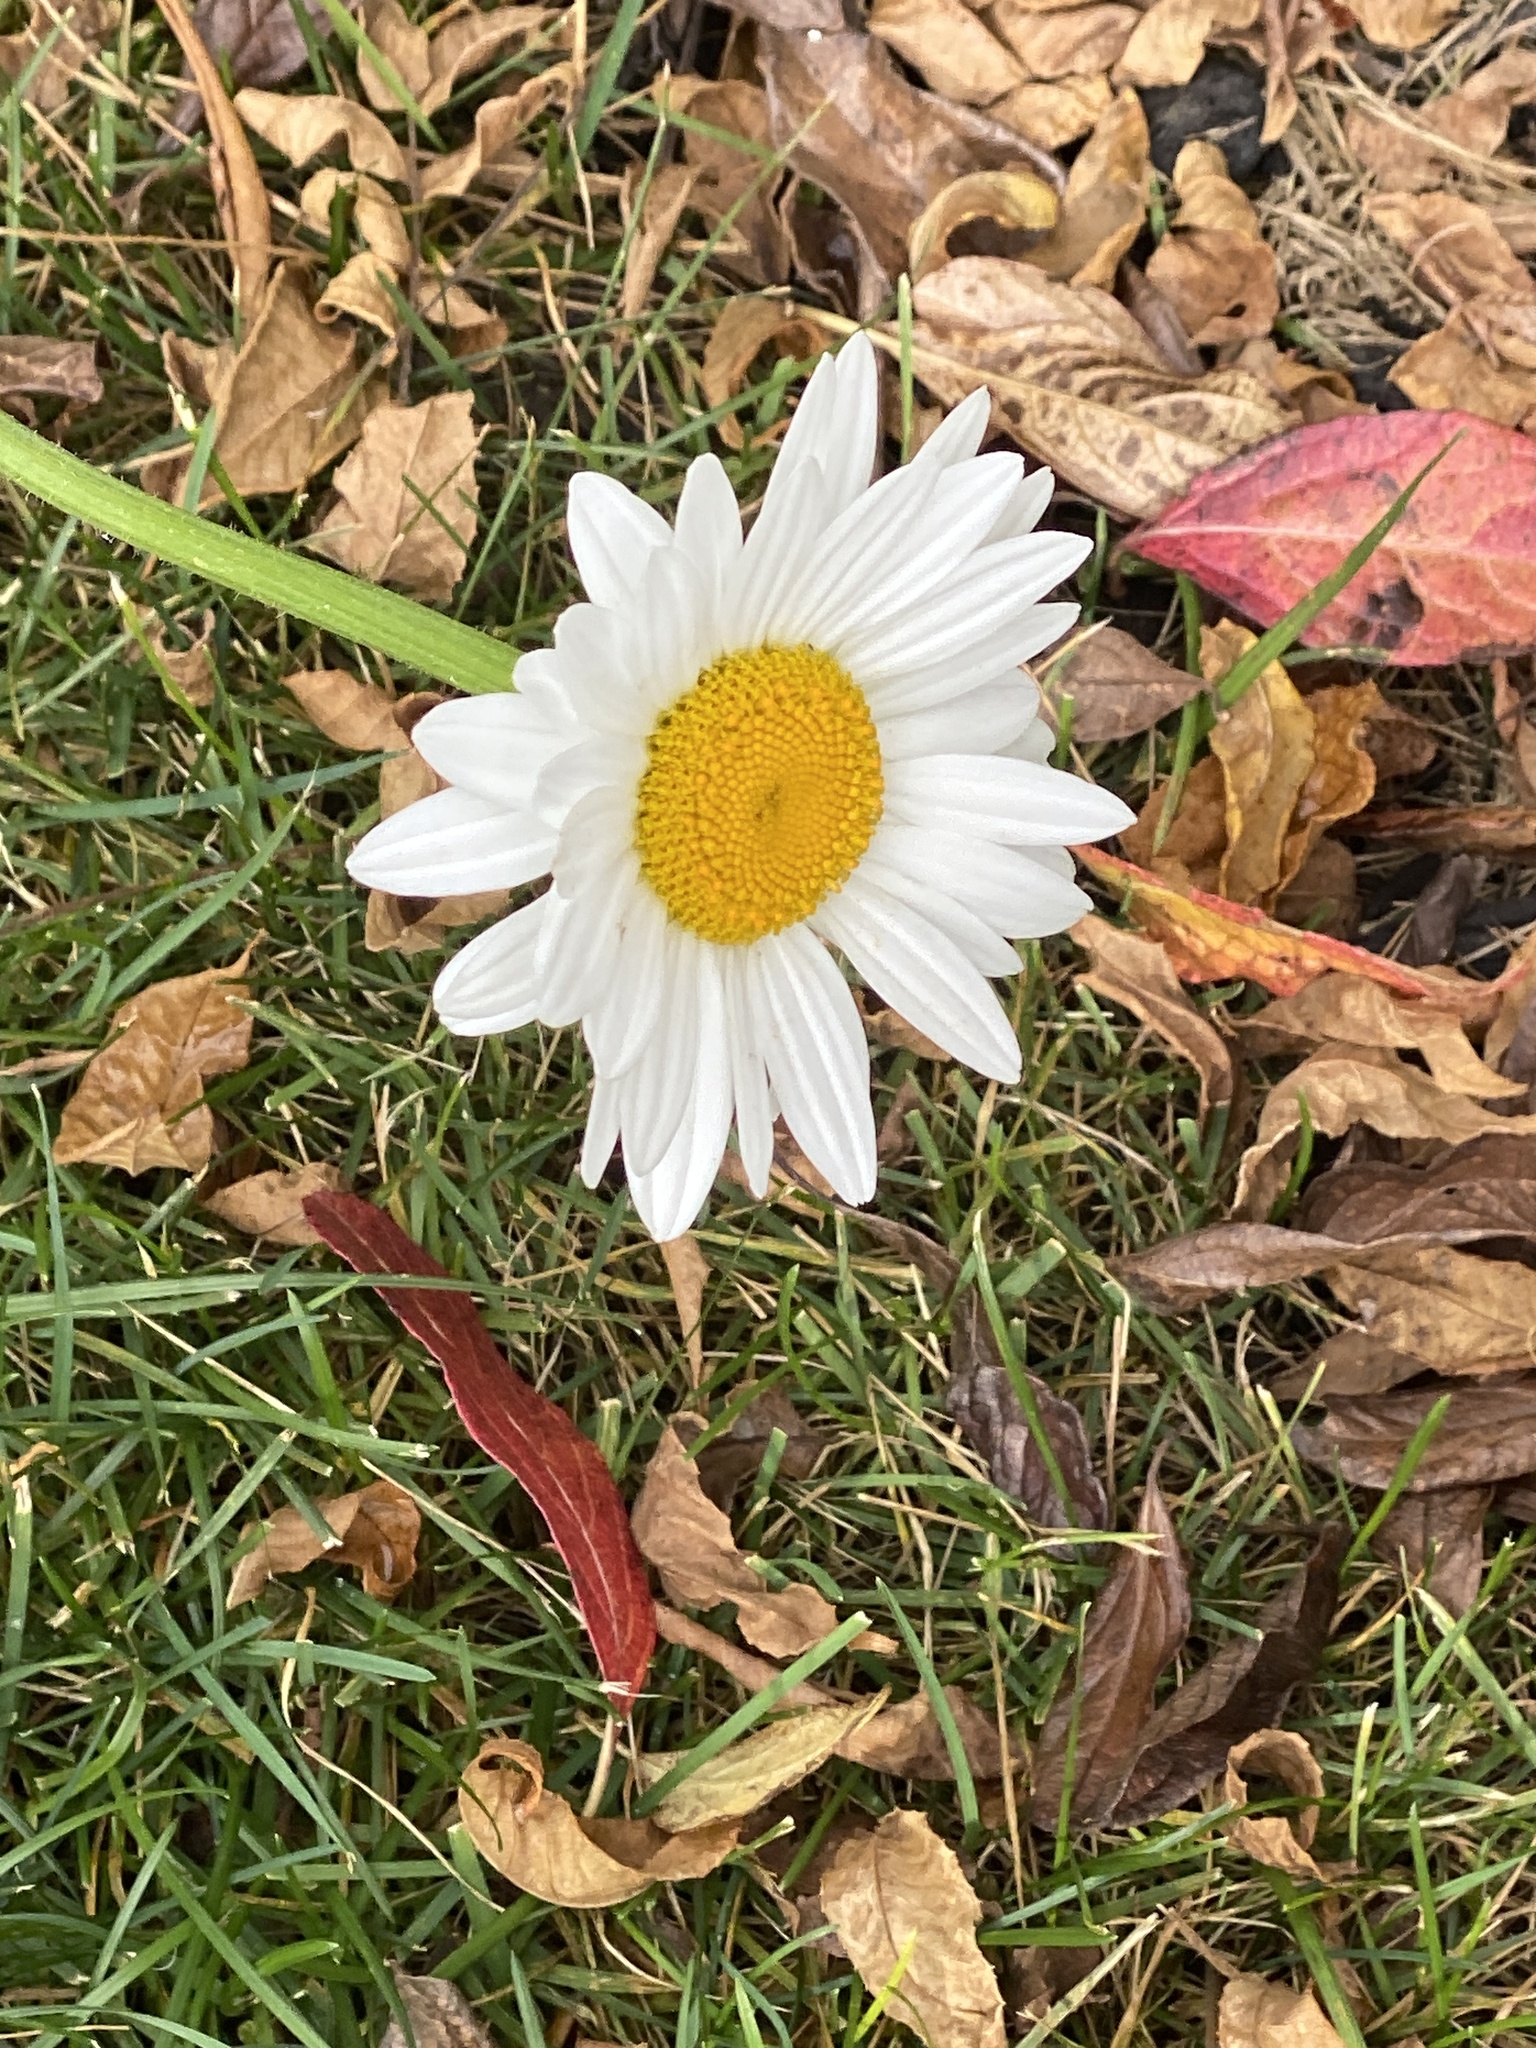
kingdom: Plantae
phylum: Tracheophyta
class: Magnoliopsida
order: Asterales
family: Asteraceae
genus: Leucanthemum
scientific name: Leucanthemum maximum
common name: Max chrysanthemum
